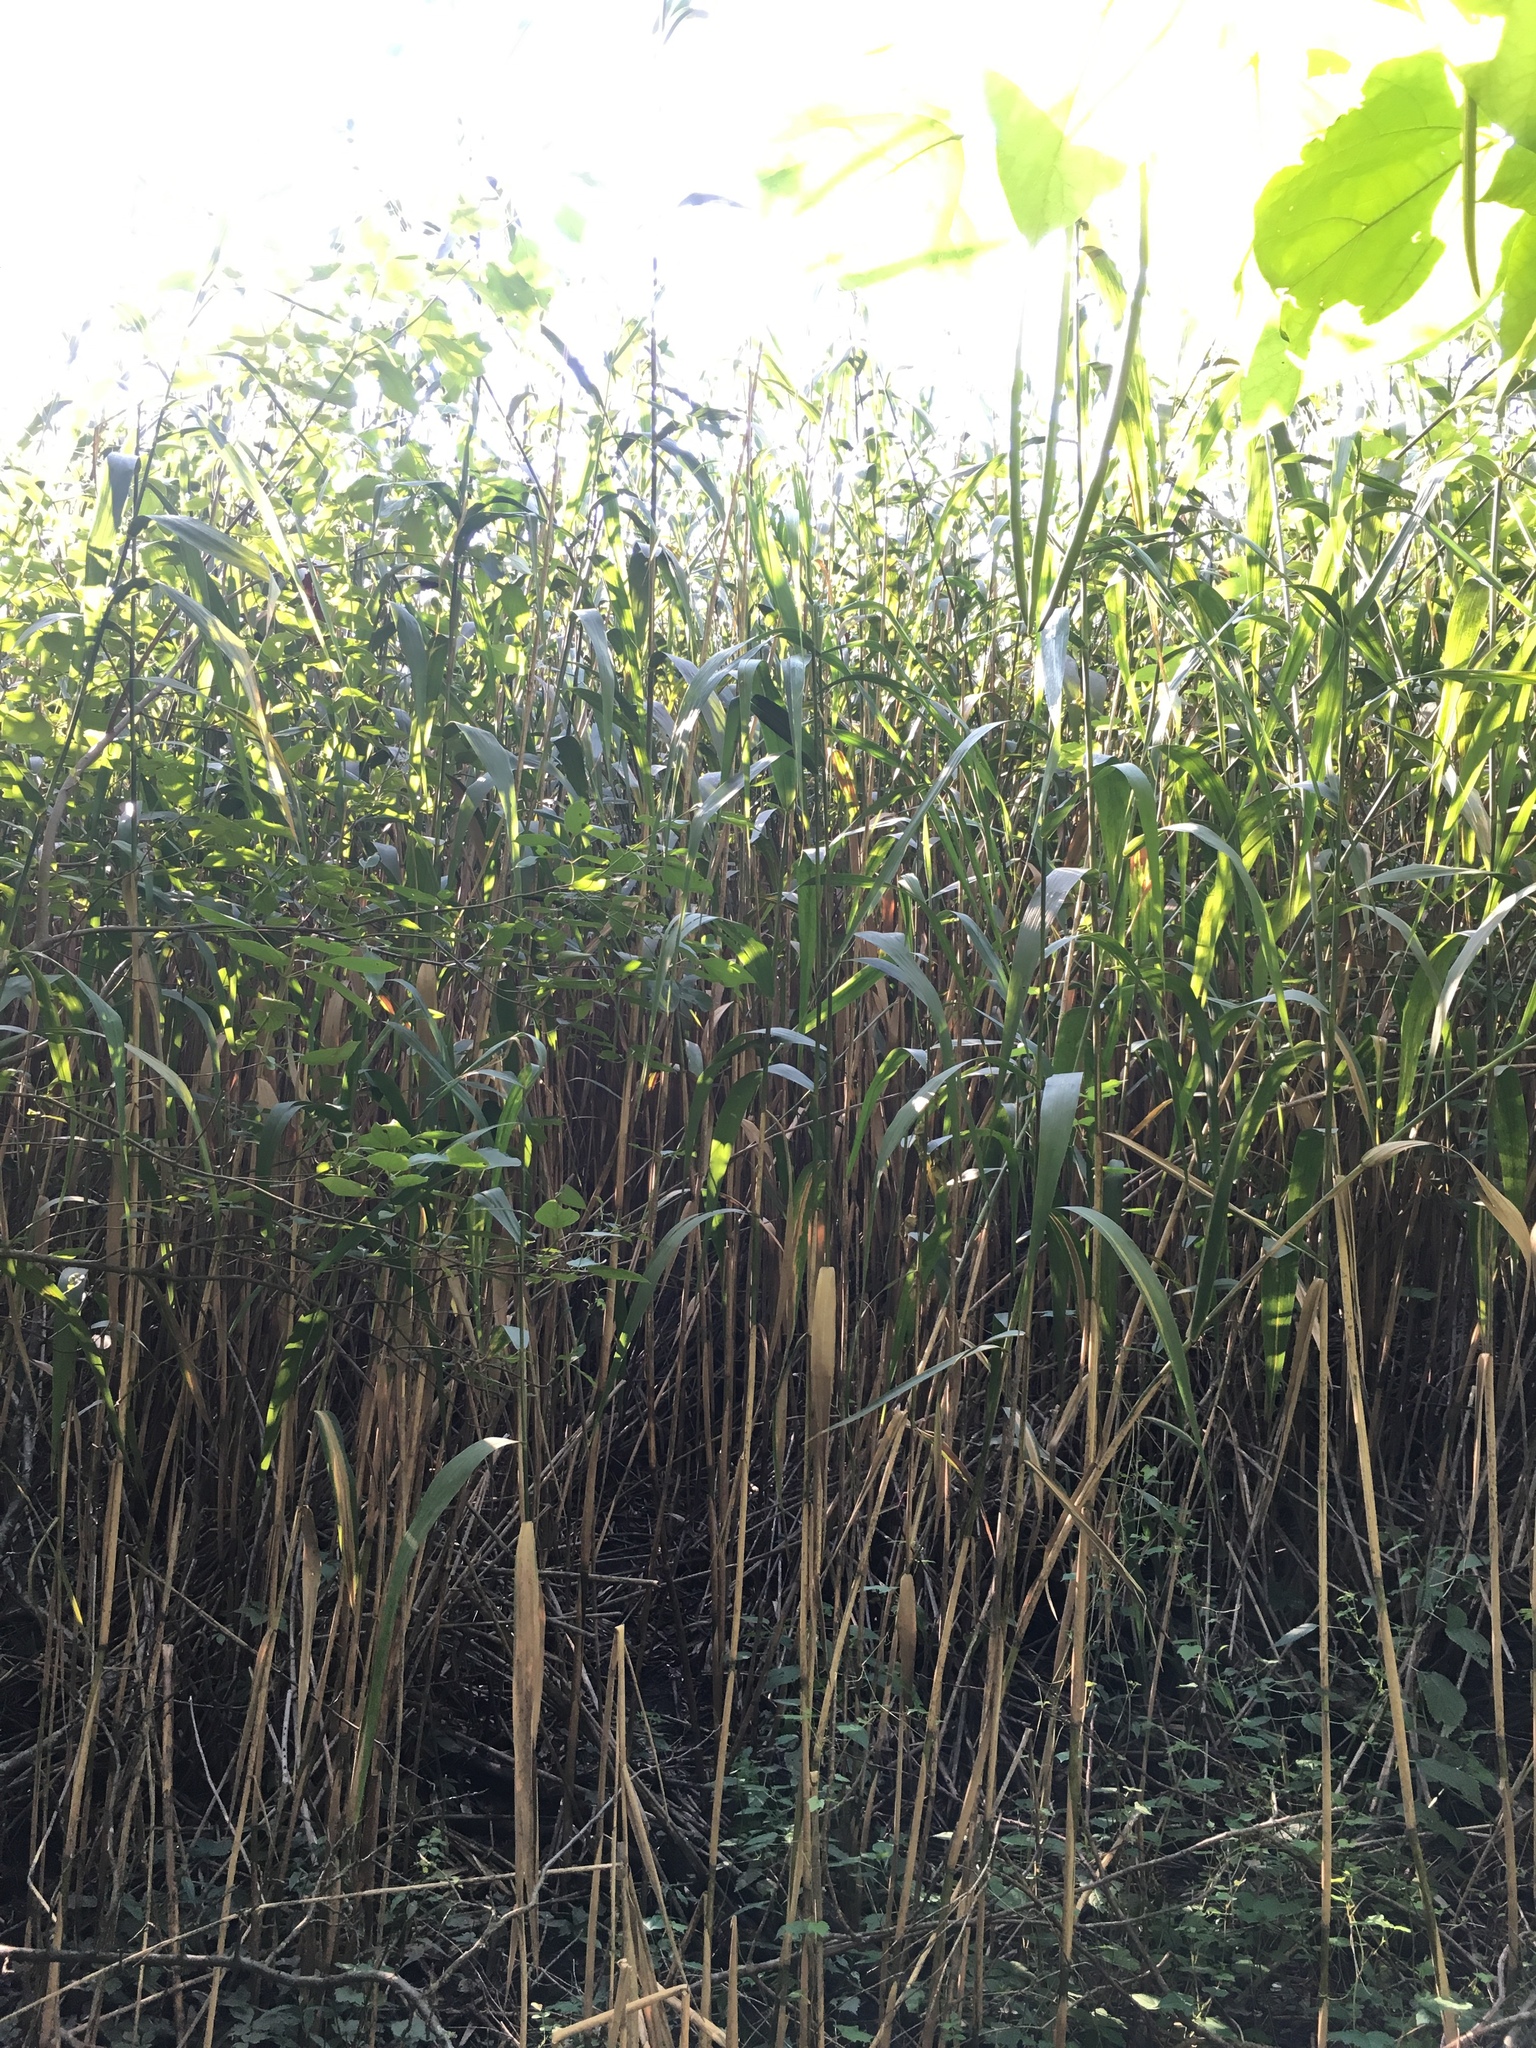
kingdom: Plantae
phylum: Tracheophyta
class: Liliopsida
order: Poales
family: Poaceae
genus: Phragmites
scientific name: Phragmites australis
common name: Common reed
